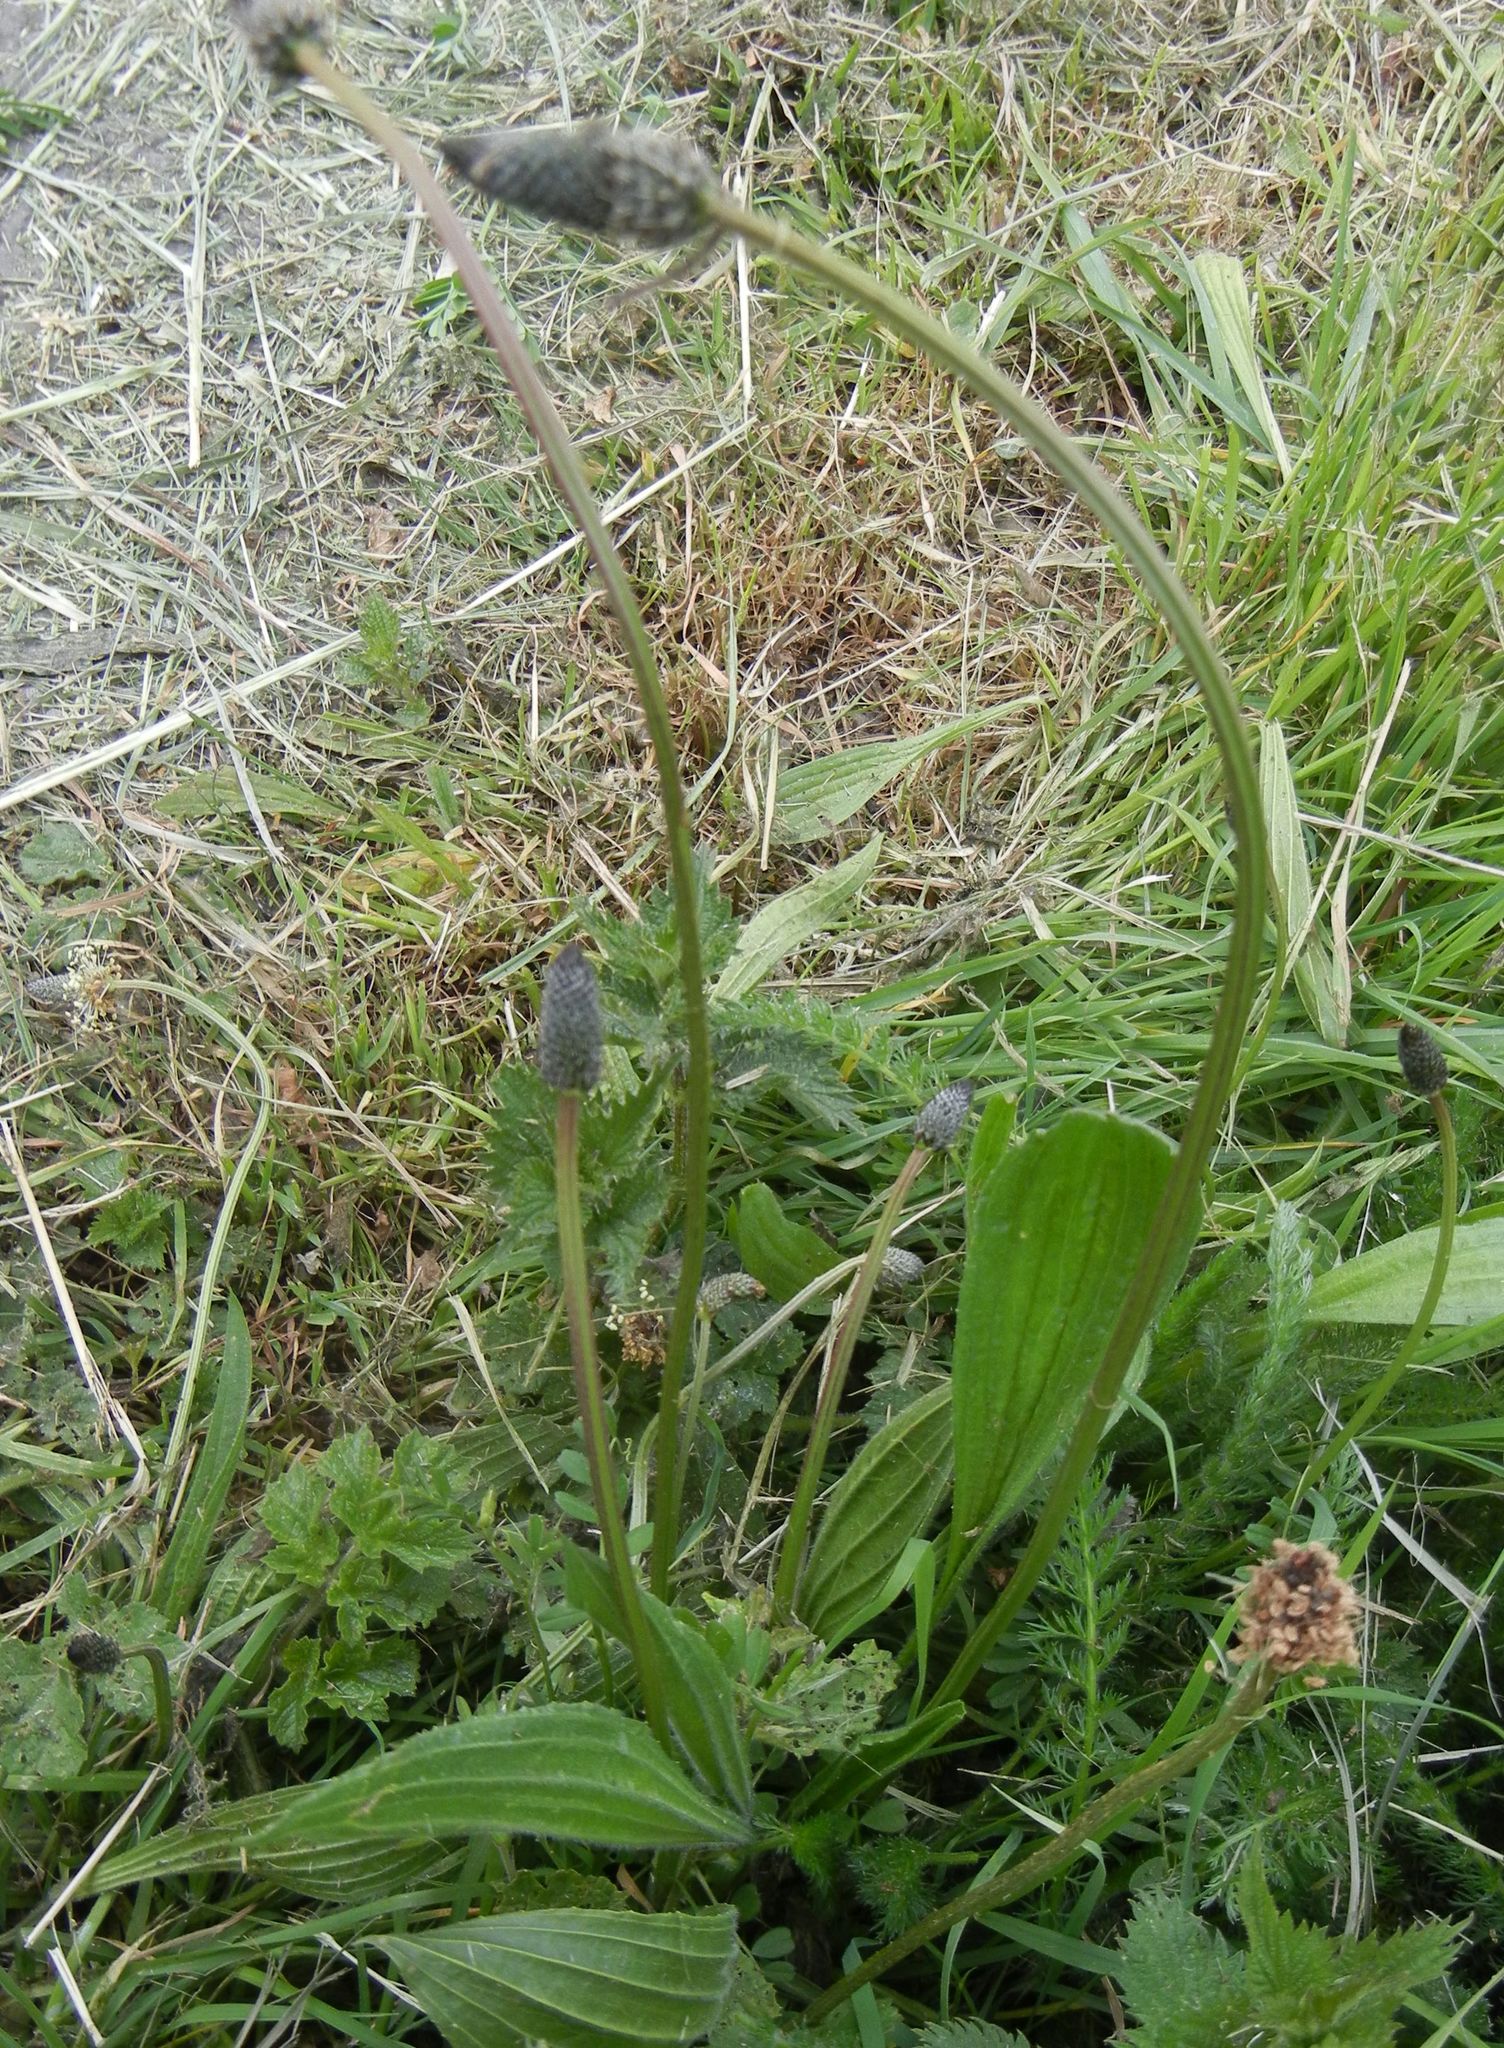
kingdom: Plantae
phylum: Tracheophyta
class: Magnoliopsida
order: Lamiales
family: Plantaginaceae
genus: Plantago
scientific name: Plantago lanceolata
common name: Ribwort plantain
